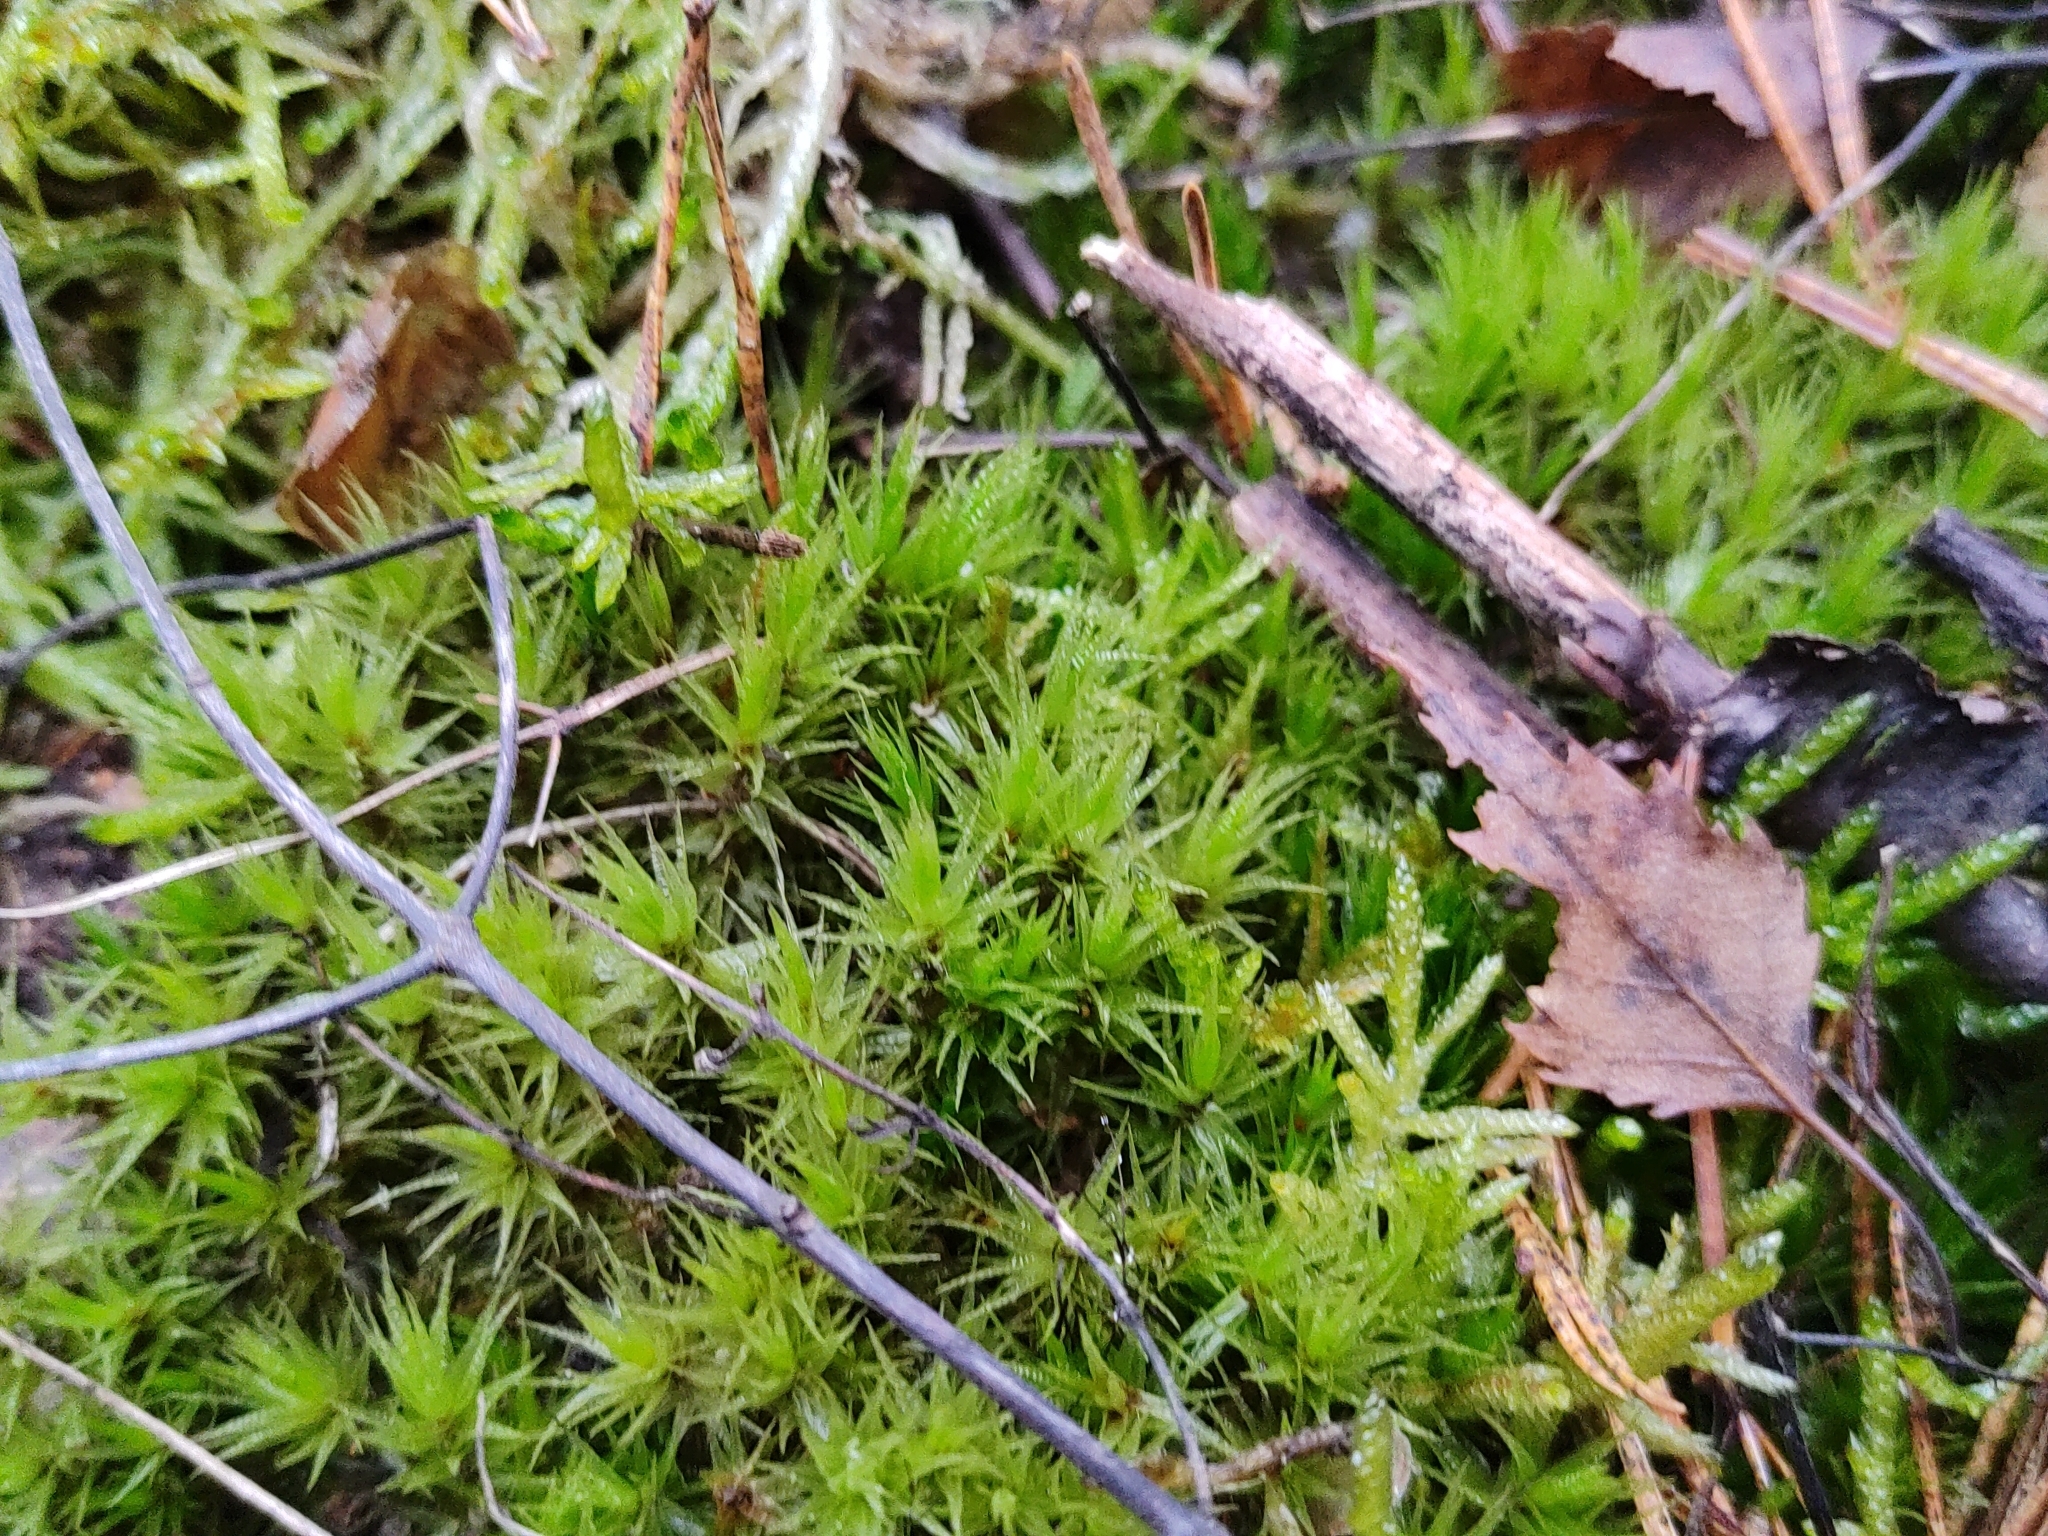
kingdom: Plantae
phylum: Bryophyta
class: Bryopsida
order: Dicranales
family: Dicranaceae
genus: Dicranum
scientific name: Dicranum polysetum
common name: Rugose fork-moss
